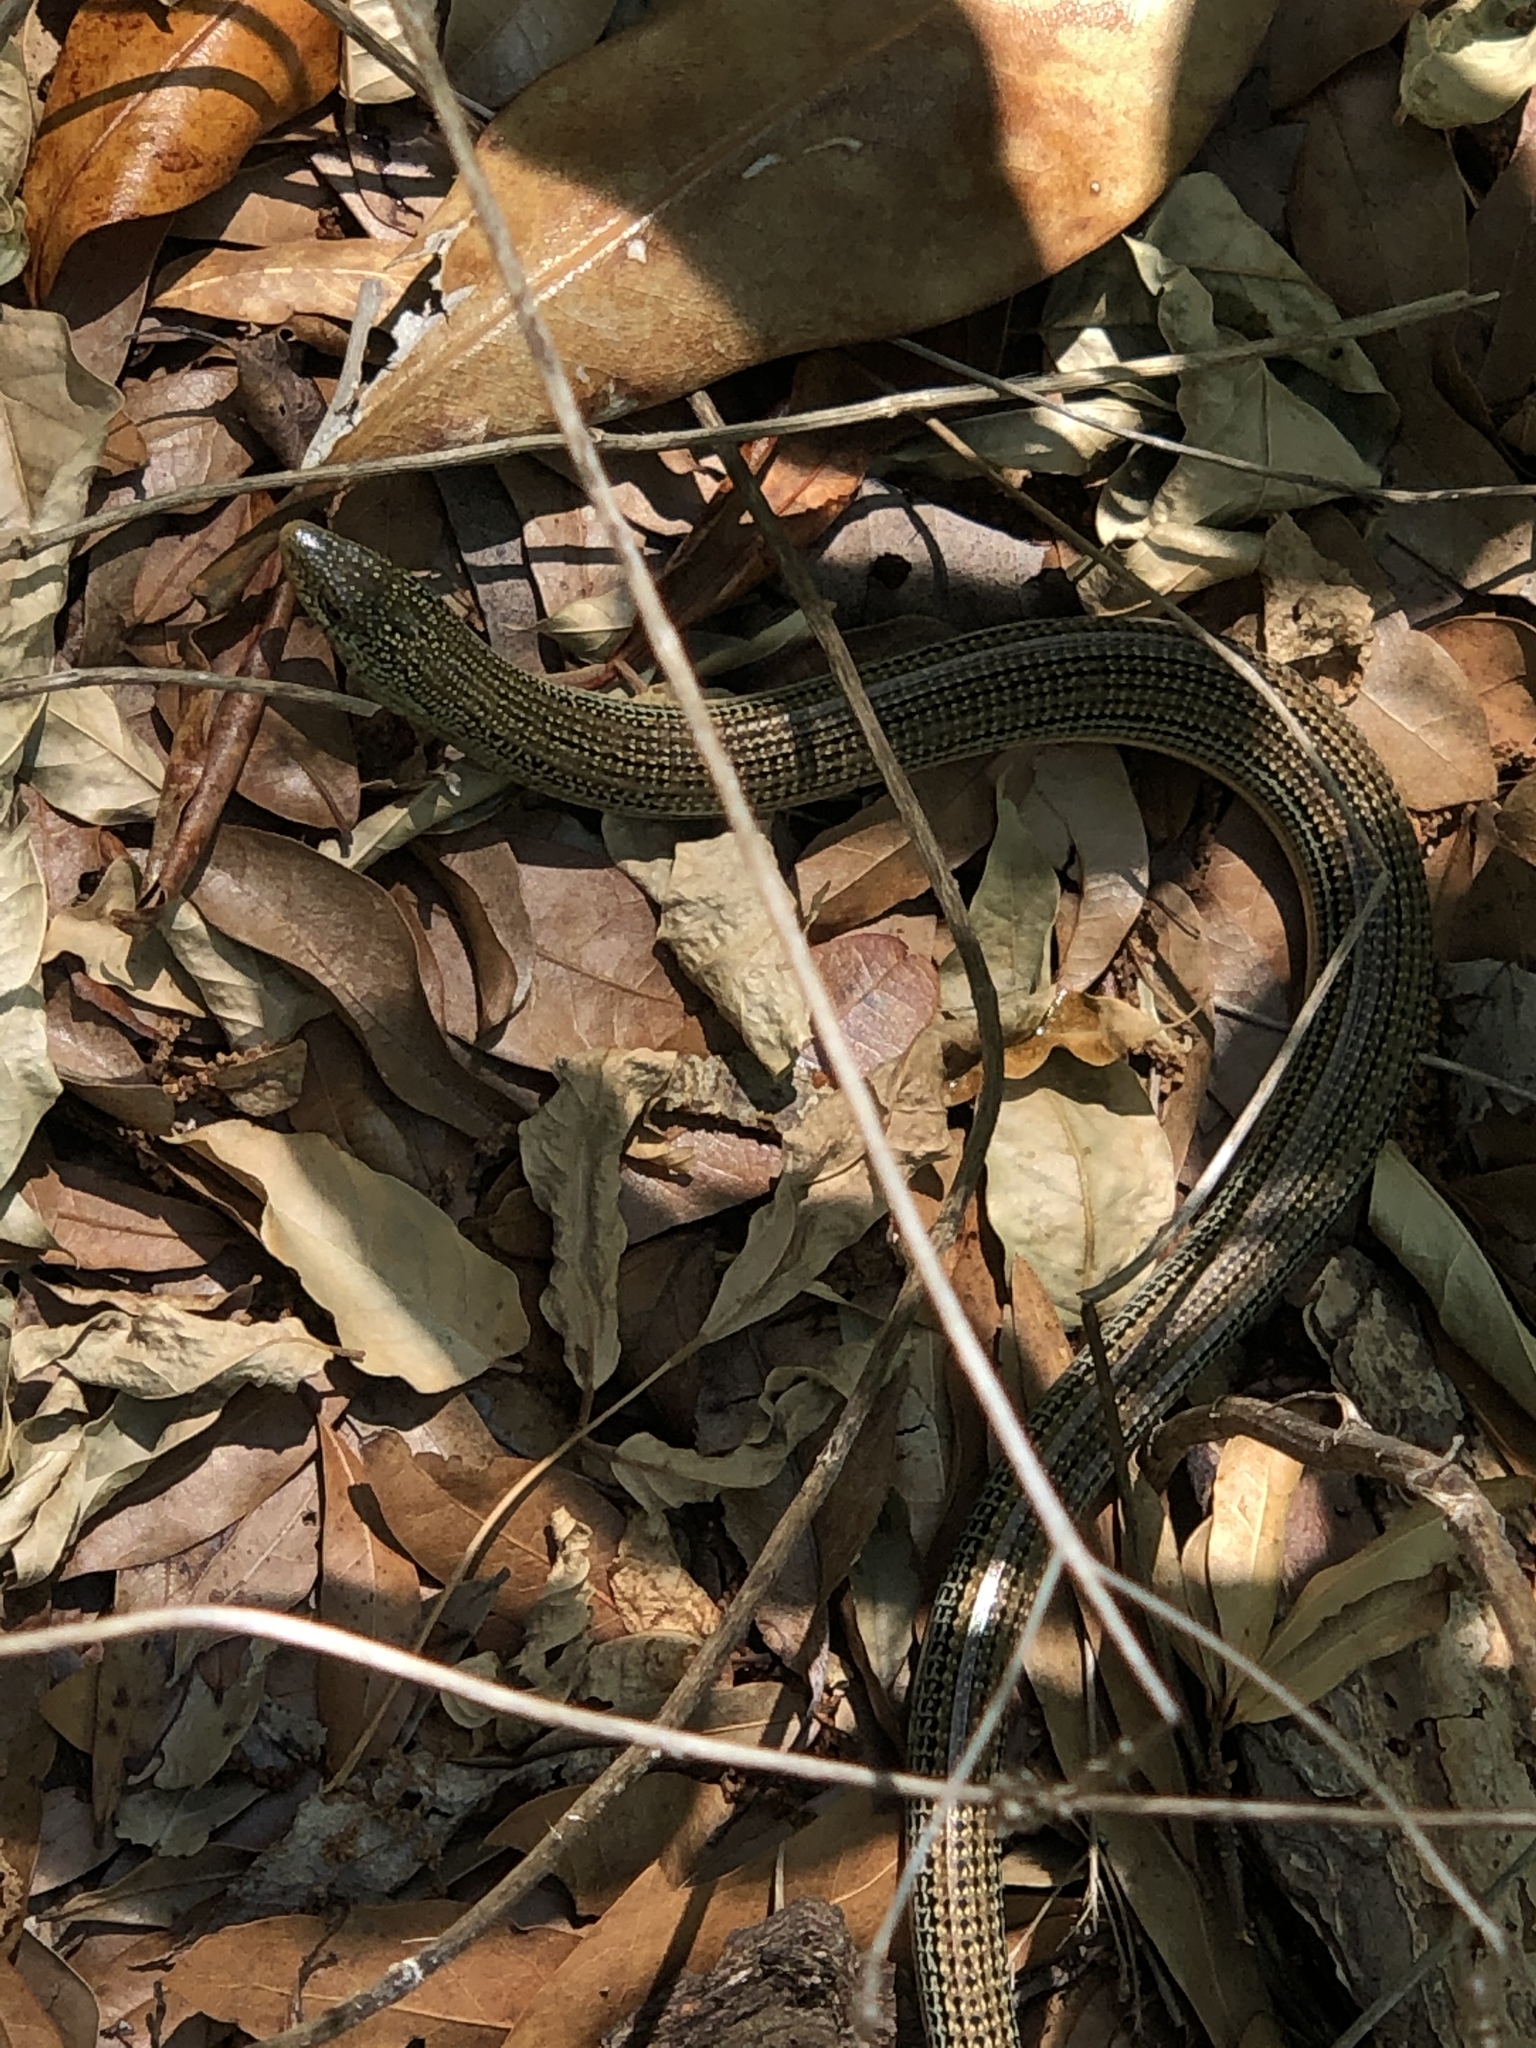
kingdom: Animalia
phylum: Chordata
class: Squamata
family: Anguidae
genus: Ophisaurus
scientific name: Ophisaurus ventralis
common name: Eastern glass lizard
